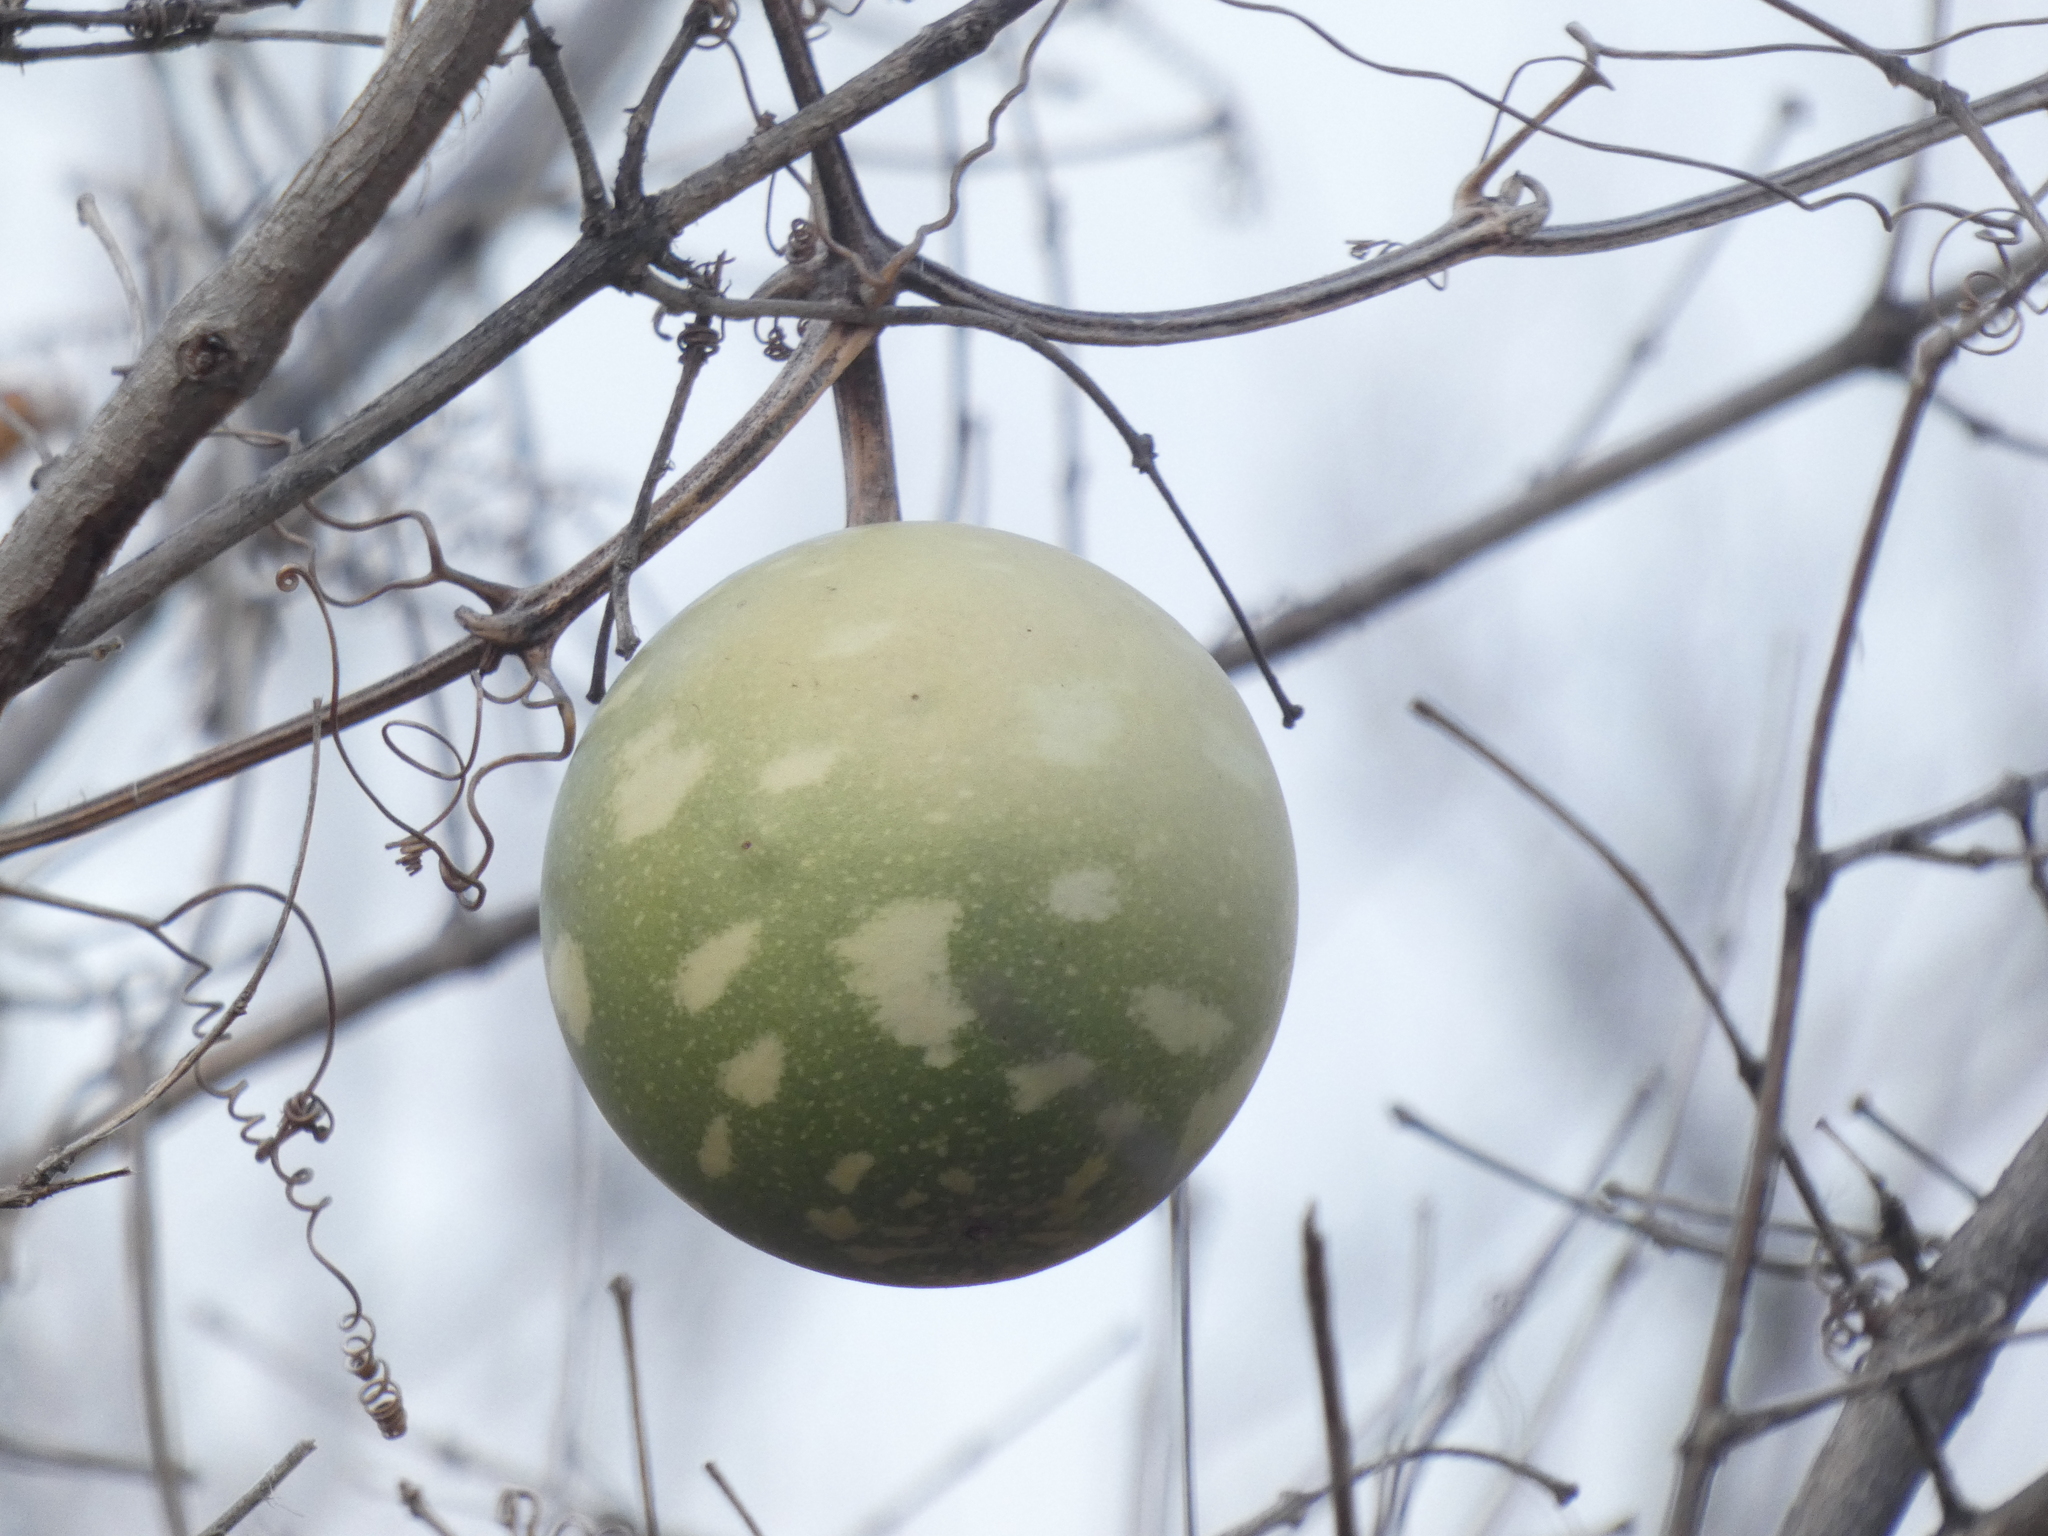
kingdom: Plantae
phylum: Tracheophyta
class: Magnoliopsida
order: Cucurbitales
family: Cucurbitaceae
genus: Lagenaria
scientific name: Lagenaria sphaerica
